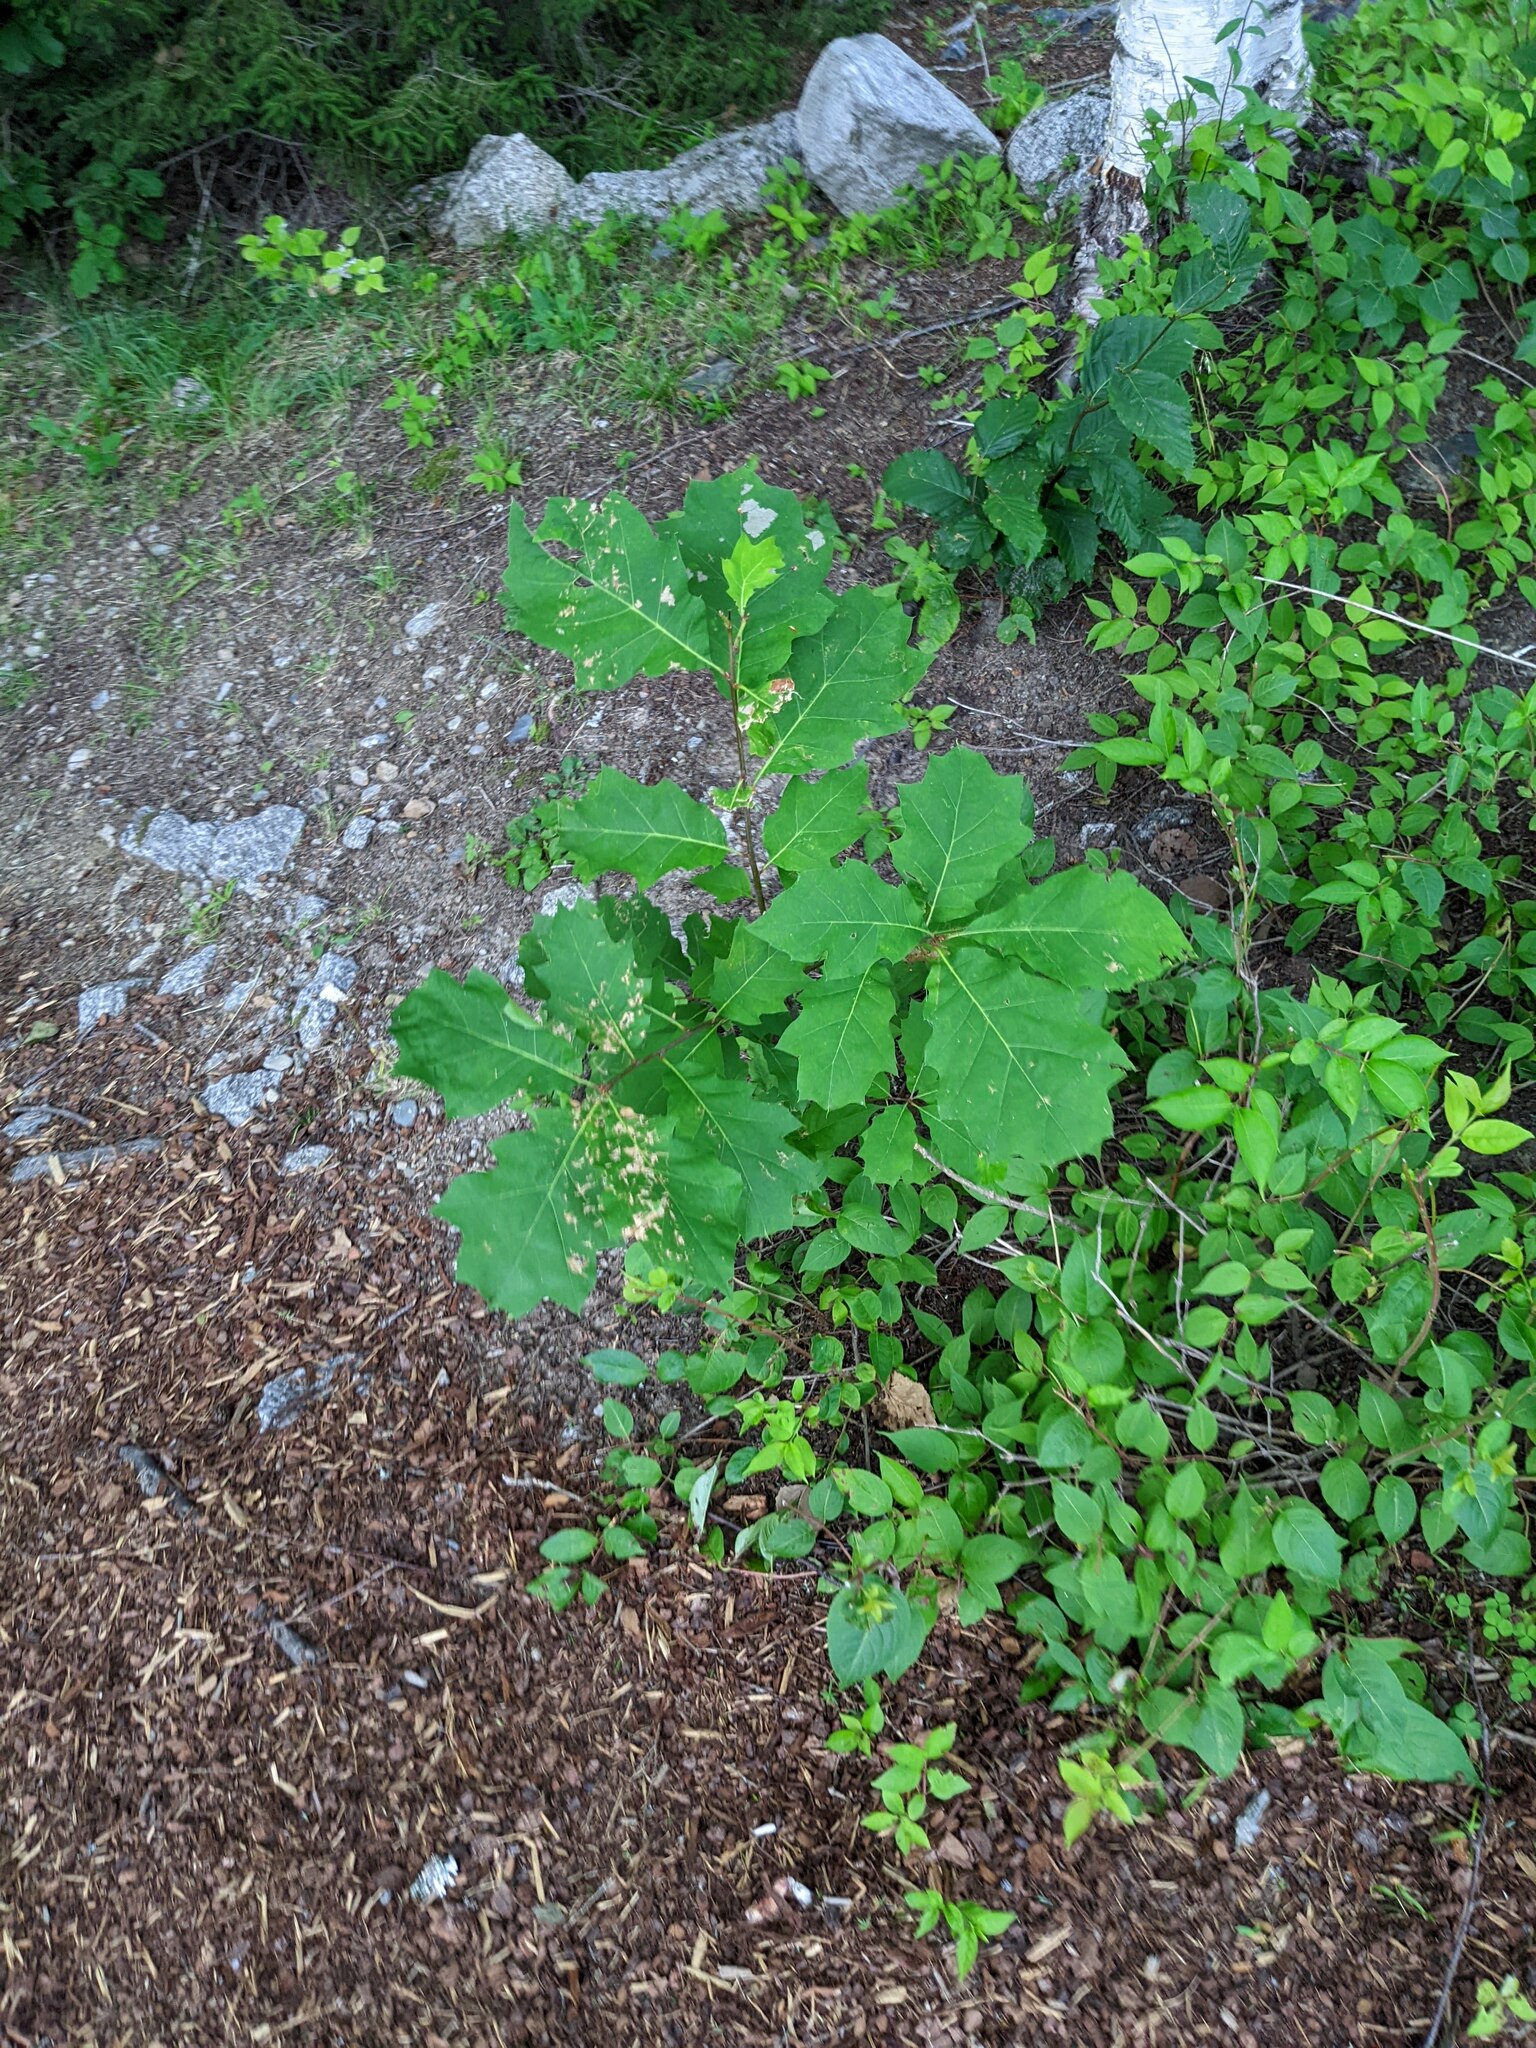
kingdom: Plantae
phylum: Tracheophyta
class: Magnoliopsida
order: Fagales
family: Fagaceae
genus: Quercus
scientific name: Quercus rubra
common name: Red oak
